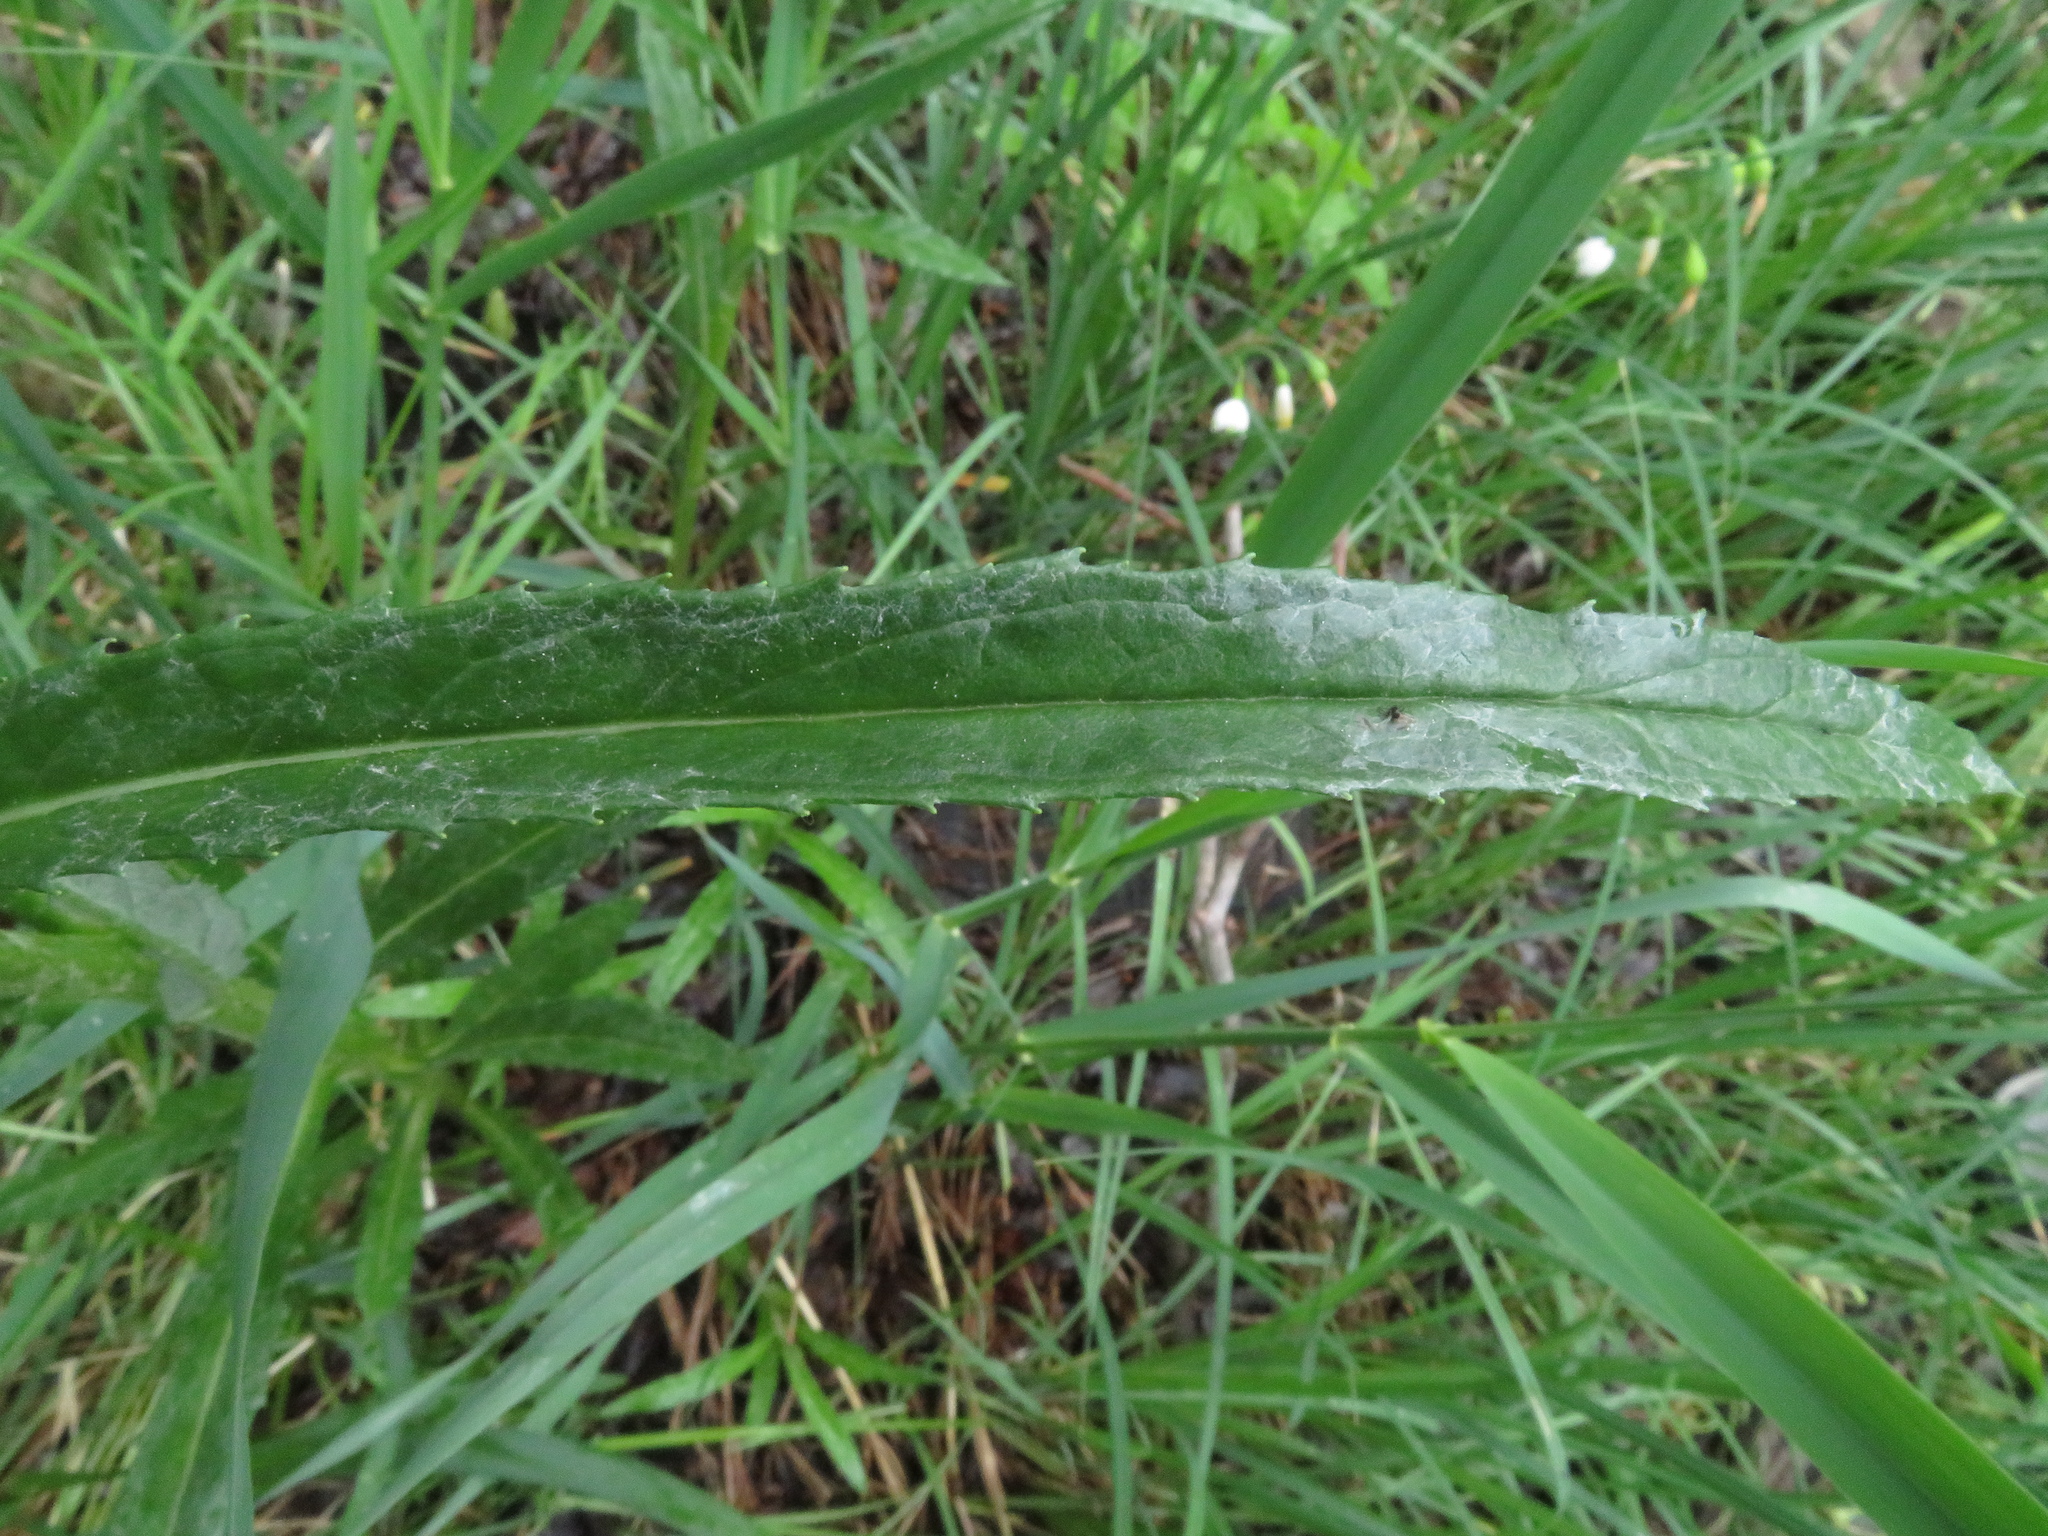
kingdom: Plantae
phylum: Tracheophyta
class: Magnoliopsida
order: Asterales
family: Asteraceae
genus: Jacobaea
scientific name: Jacobaea paludosa
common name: Fen ragwort
